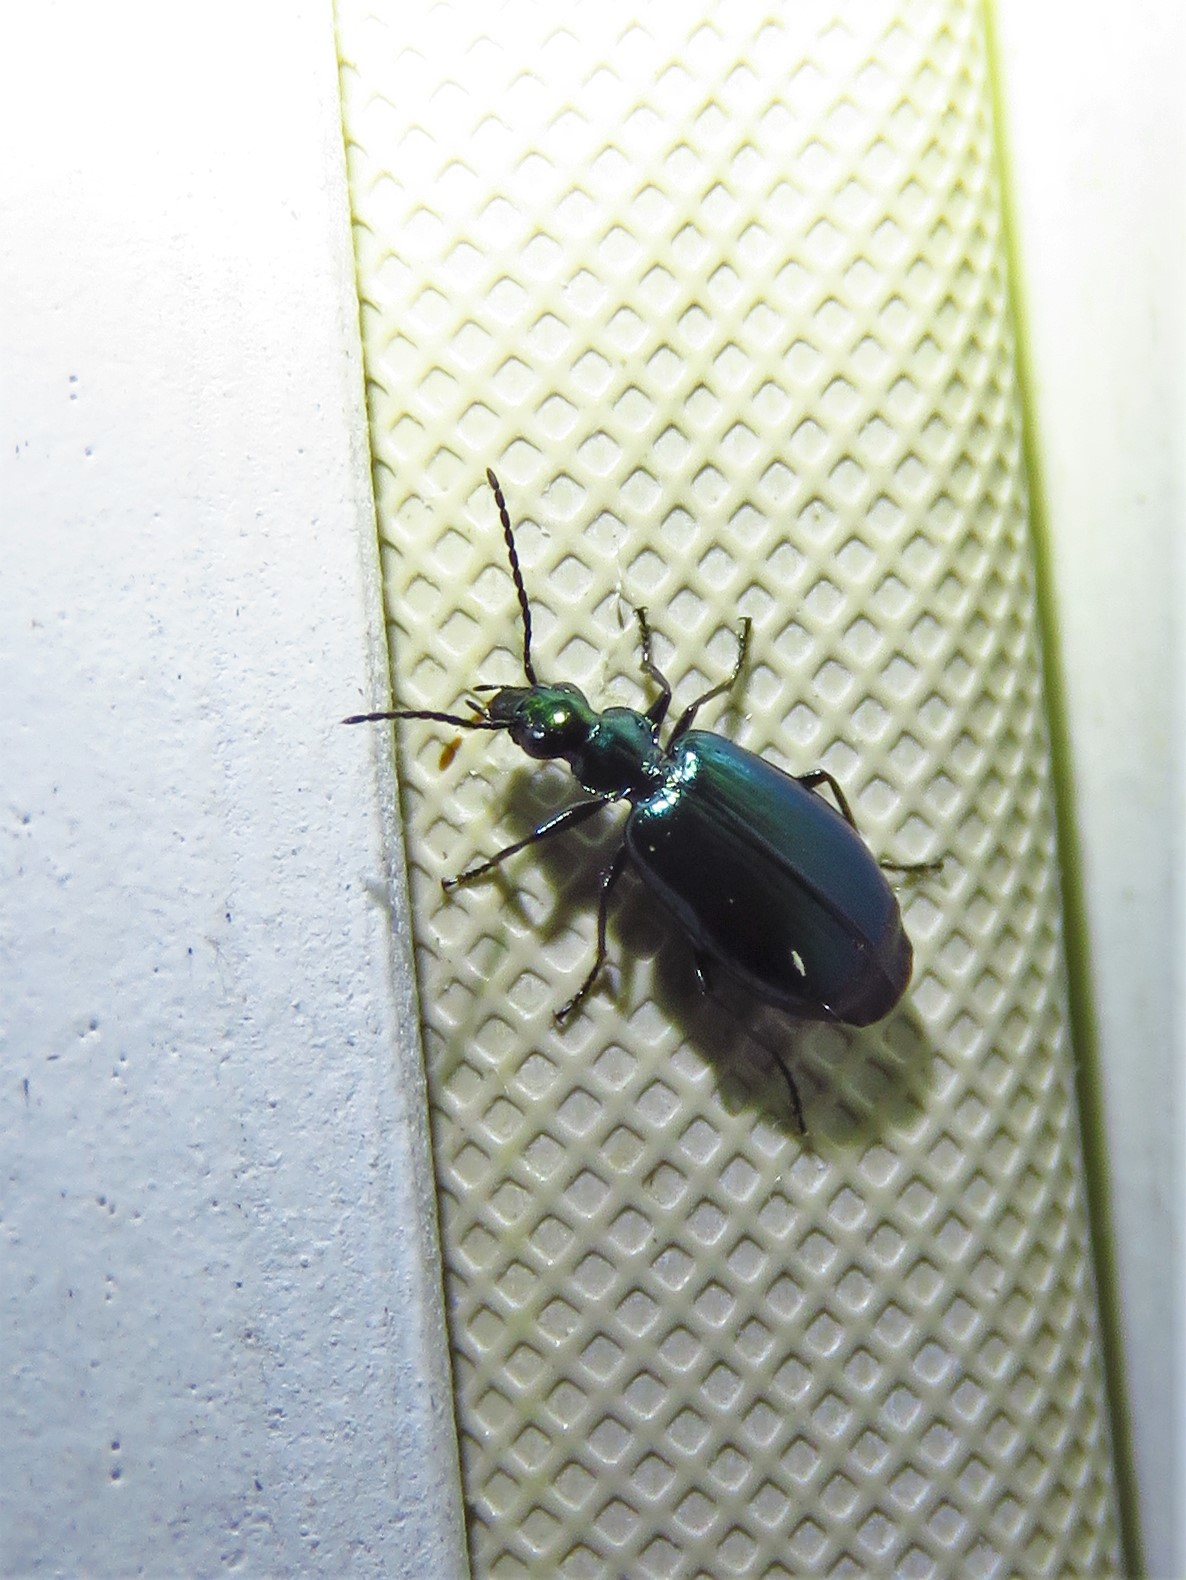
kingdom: Animalia
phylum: Arthropoda
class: Insecta
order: Coleoptera
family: Carabidae
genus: Lebia
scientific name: Lebia viridis
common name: Flower lebia beetle
